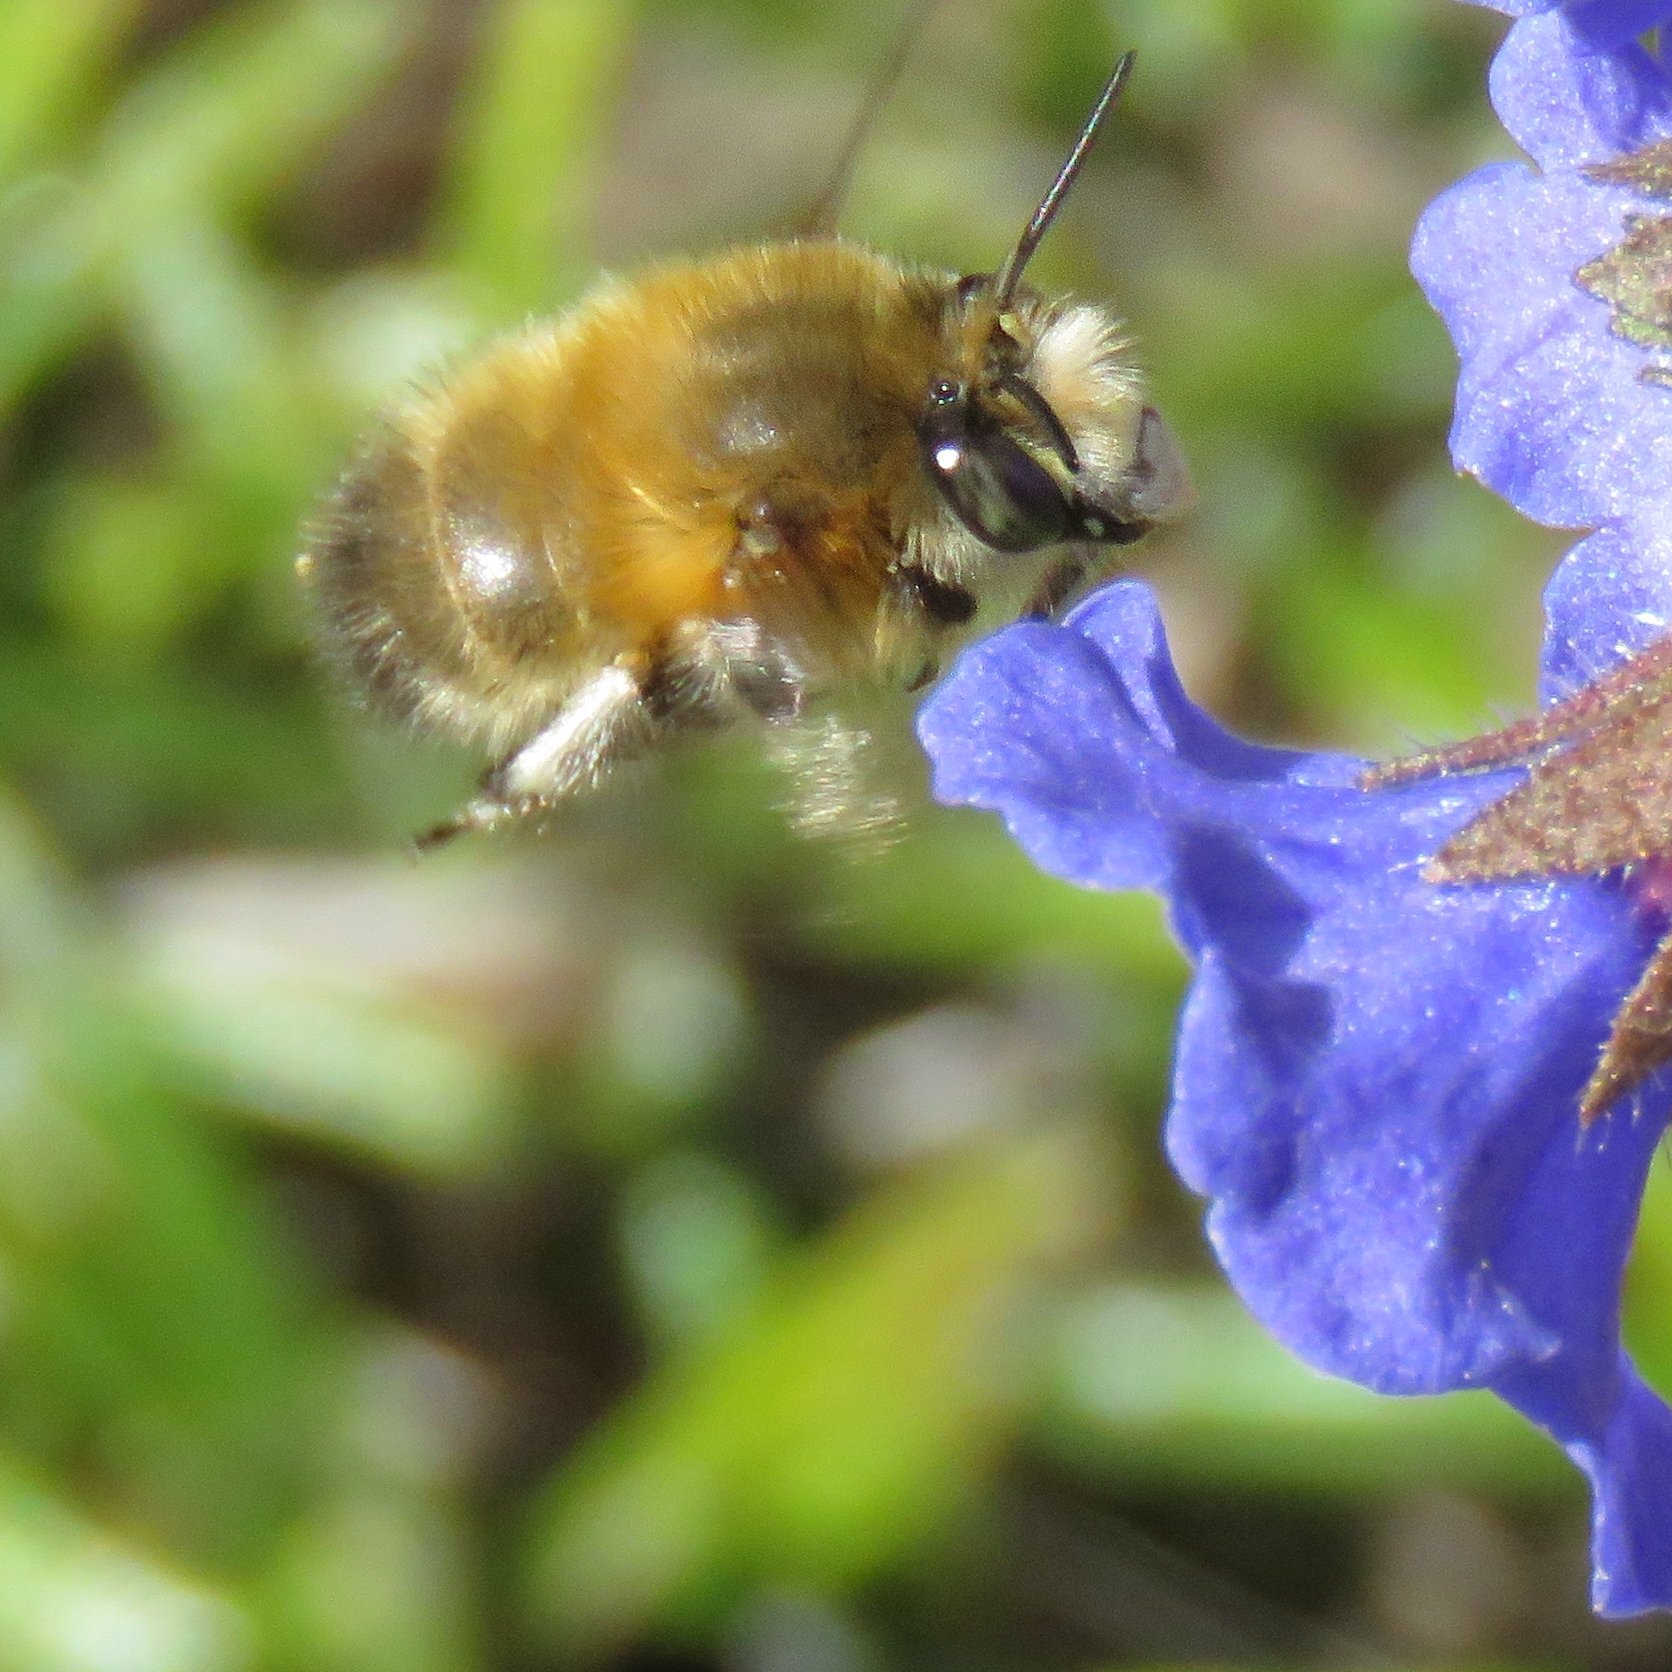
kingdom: Animalia
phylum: Arthropoda
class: Insecta
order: Hymenoptera
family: Apidae
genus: Anthophora
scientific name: Anthophora plumipes
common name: Hairy-footed flower bee
